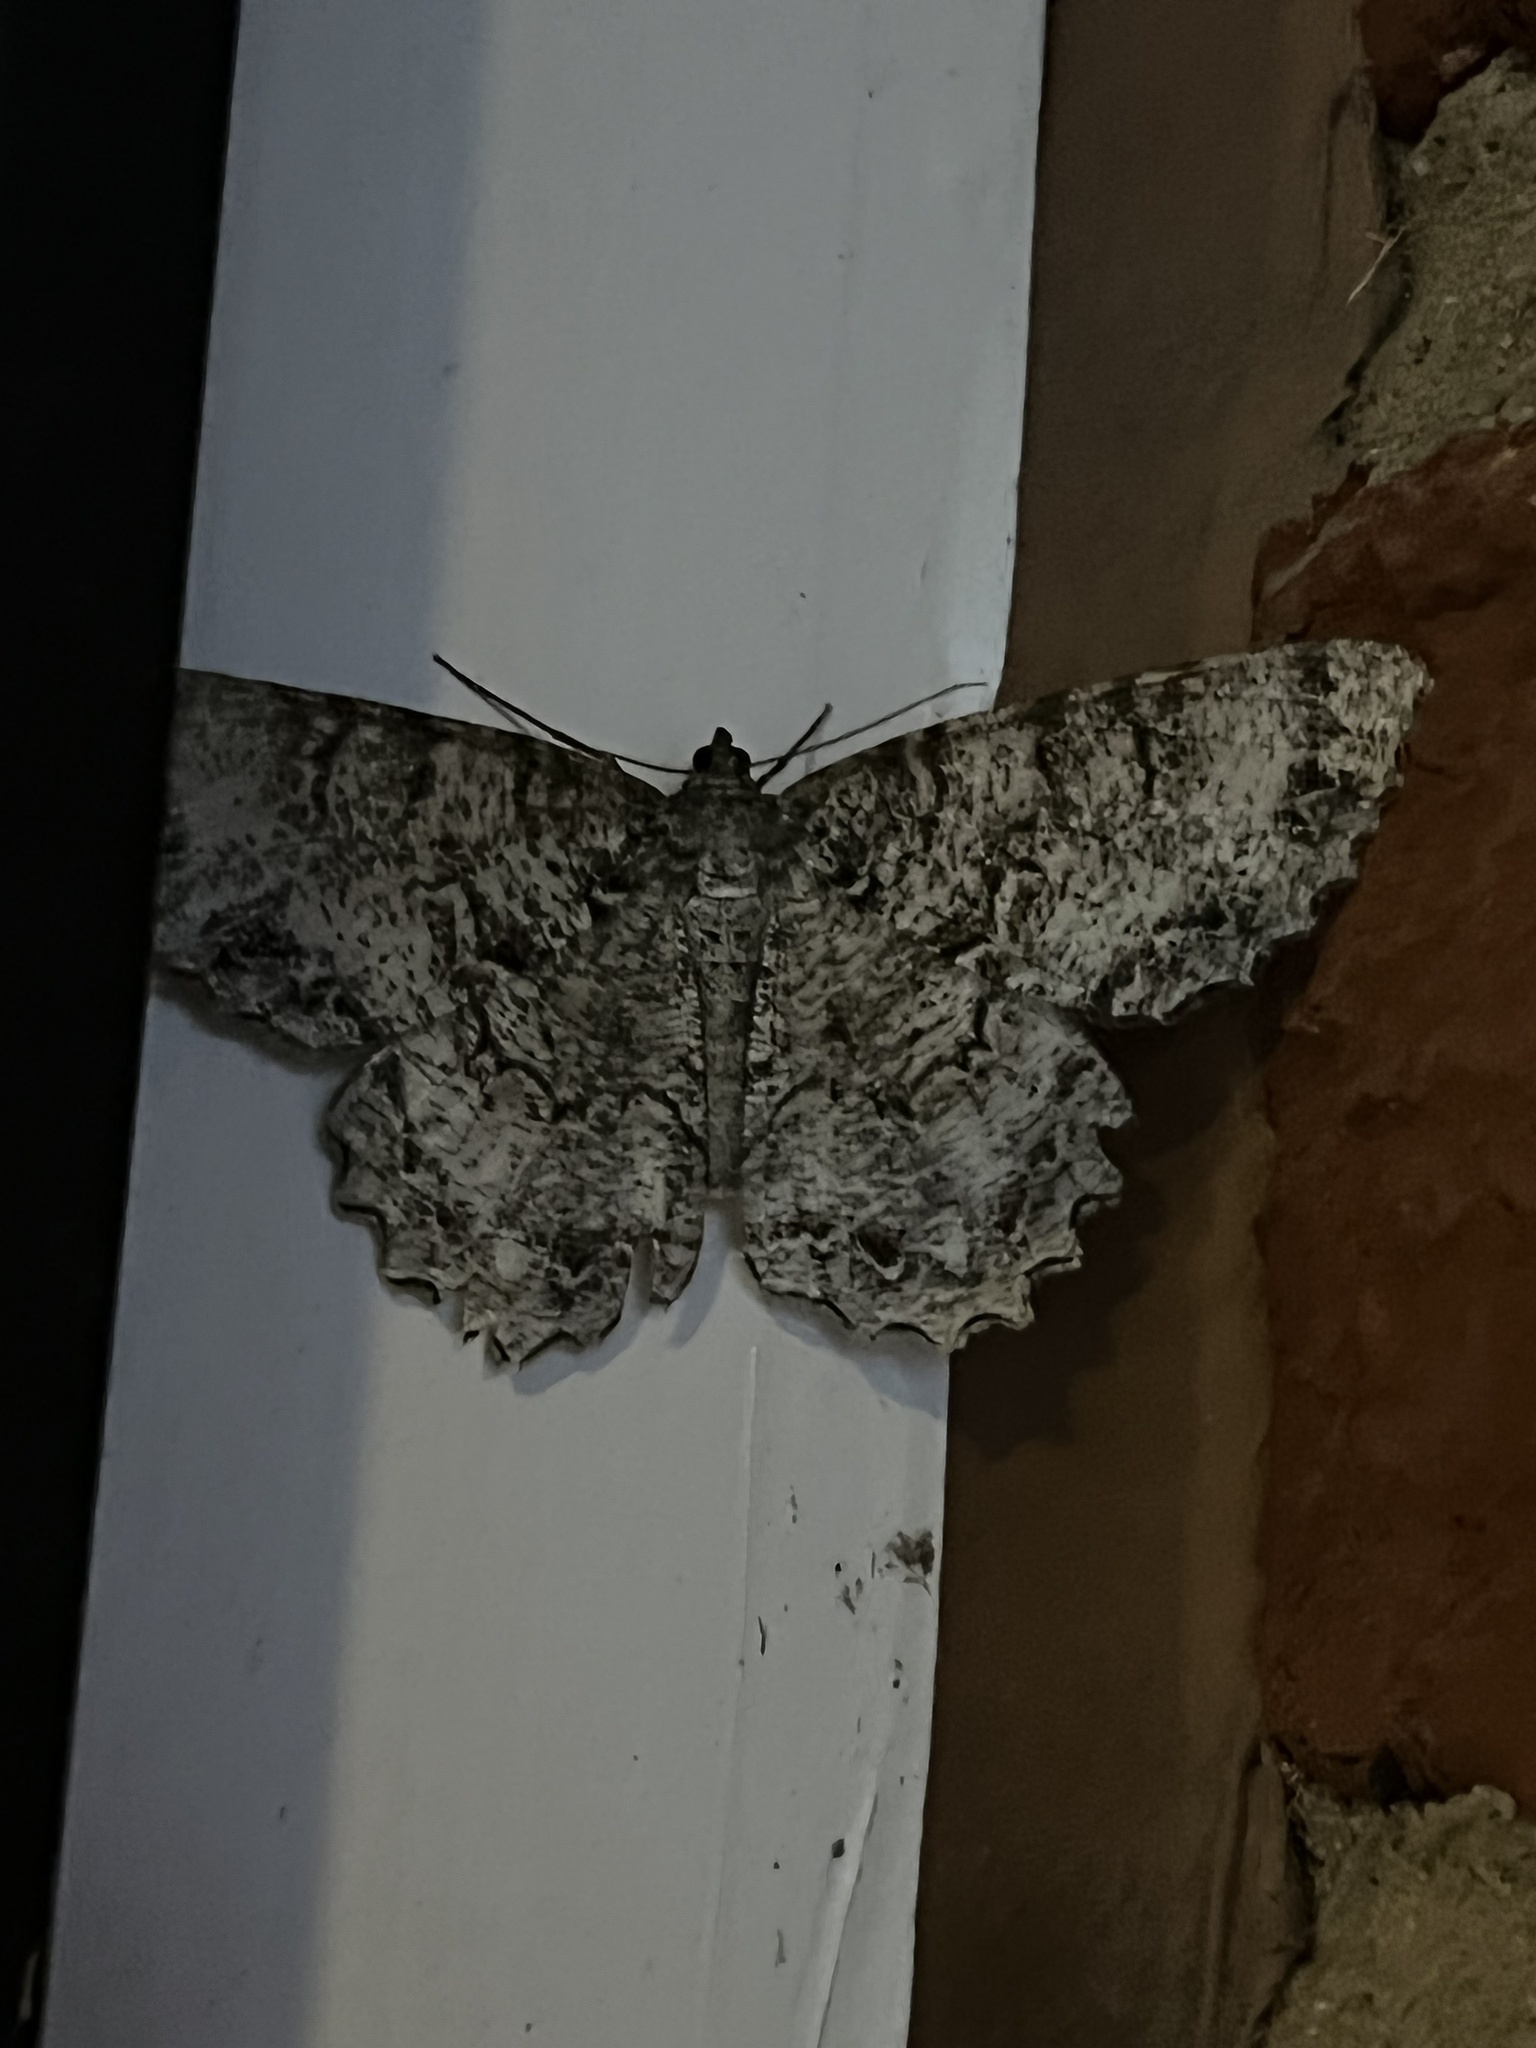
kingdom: Animalia
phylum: Arthropoda
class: Insecta
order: Lepidoptera
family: Geometridae
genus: Epimecis
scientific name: Epimecis hortaria
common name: Tulip-tree beauty
